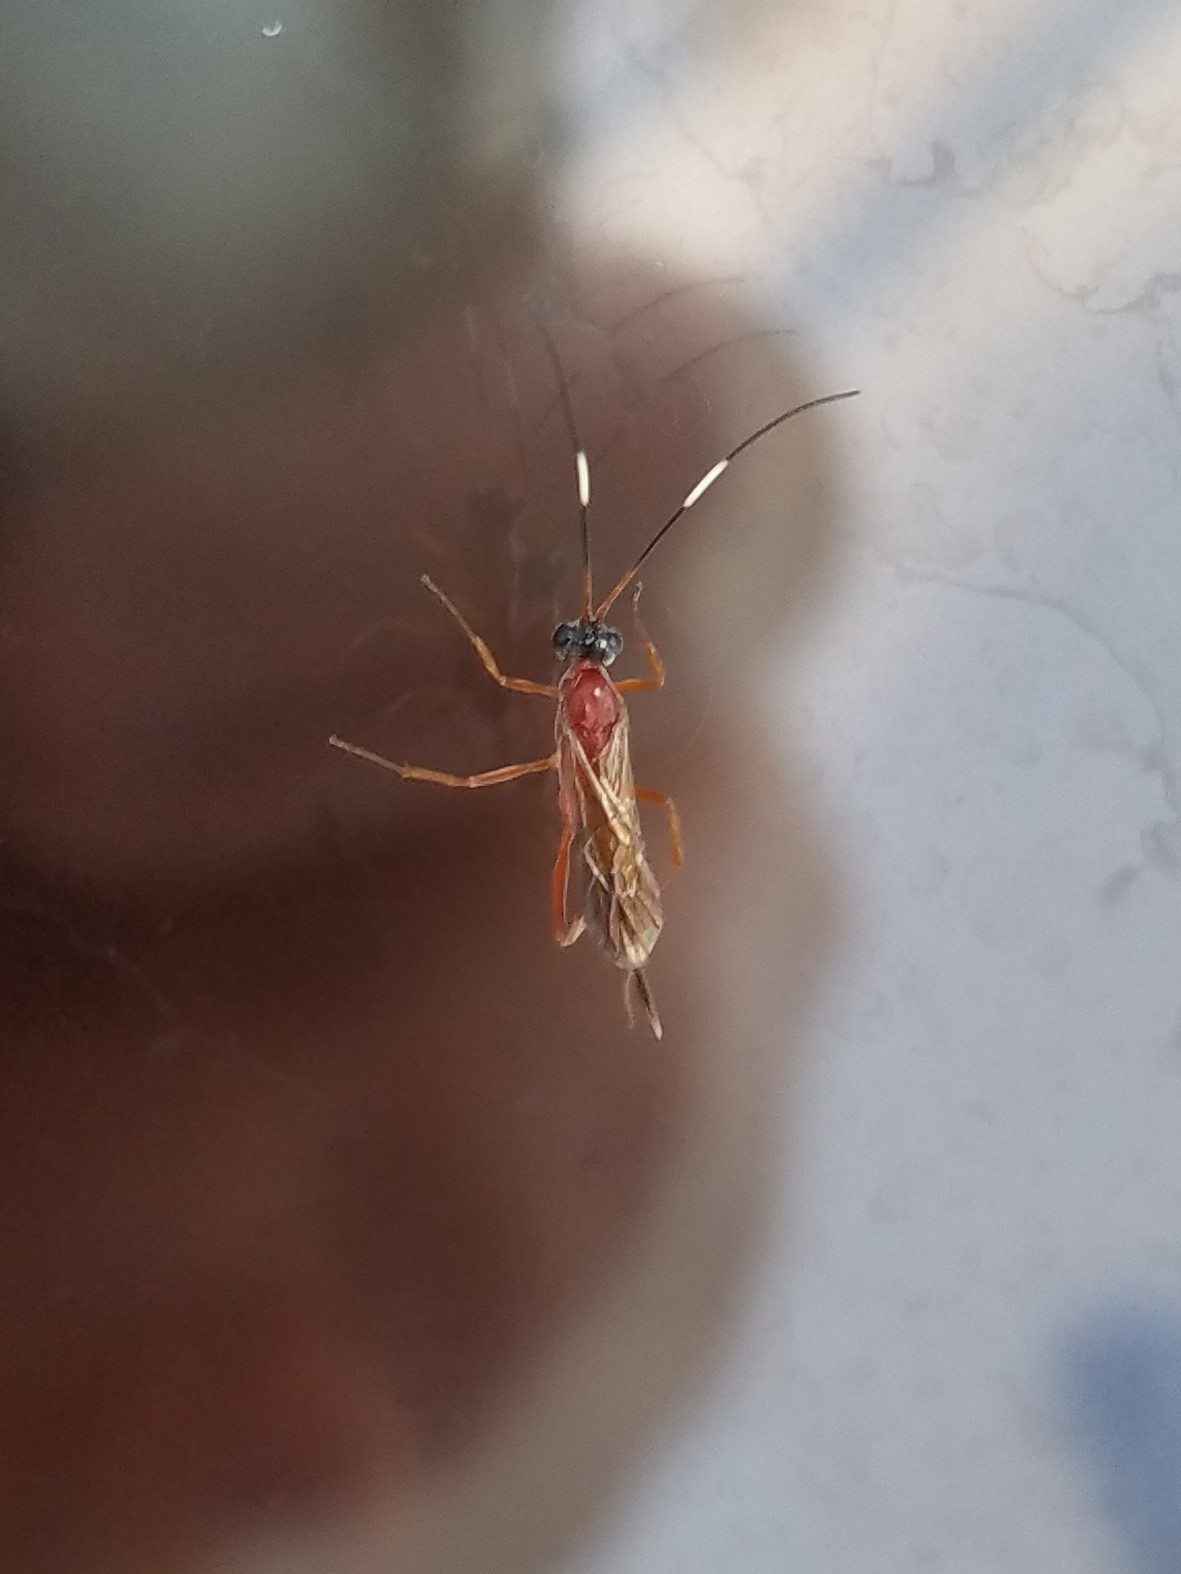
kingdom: Animalia
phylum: Arthropoda
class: Insecta
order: Hymenoptera
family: Ichneumonidae
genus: Zagryphus
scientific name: Zagryphus nasutus
